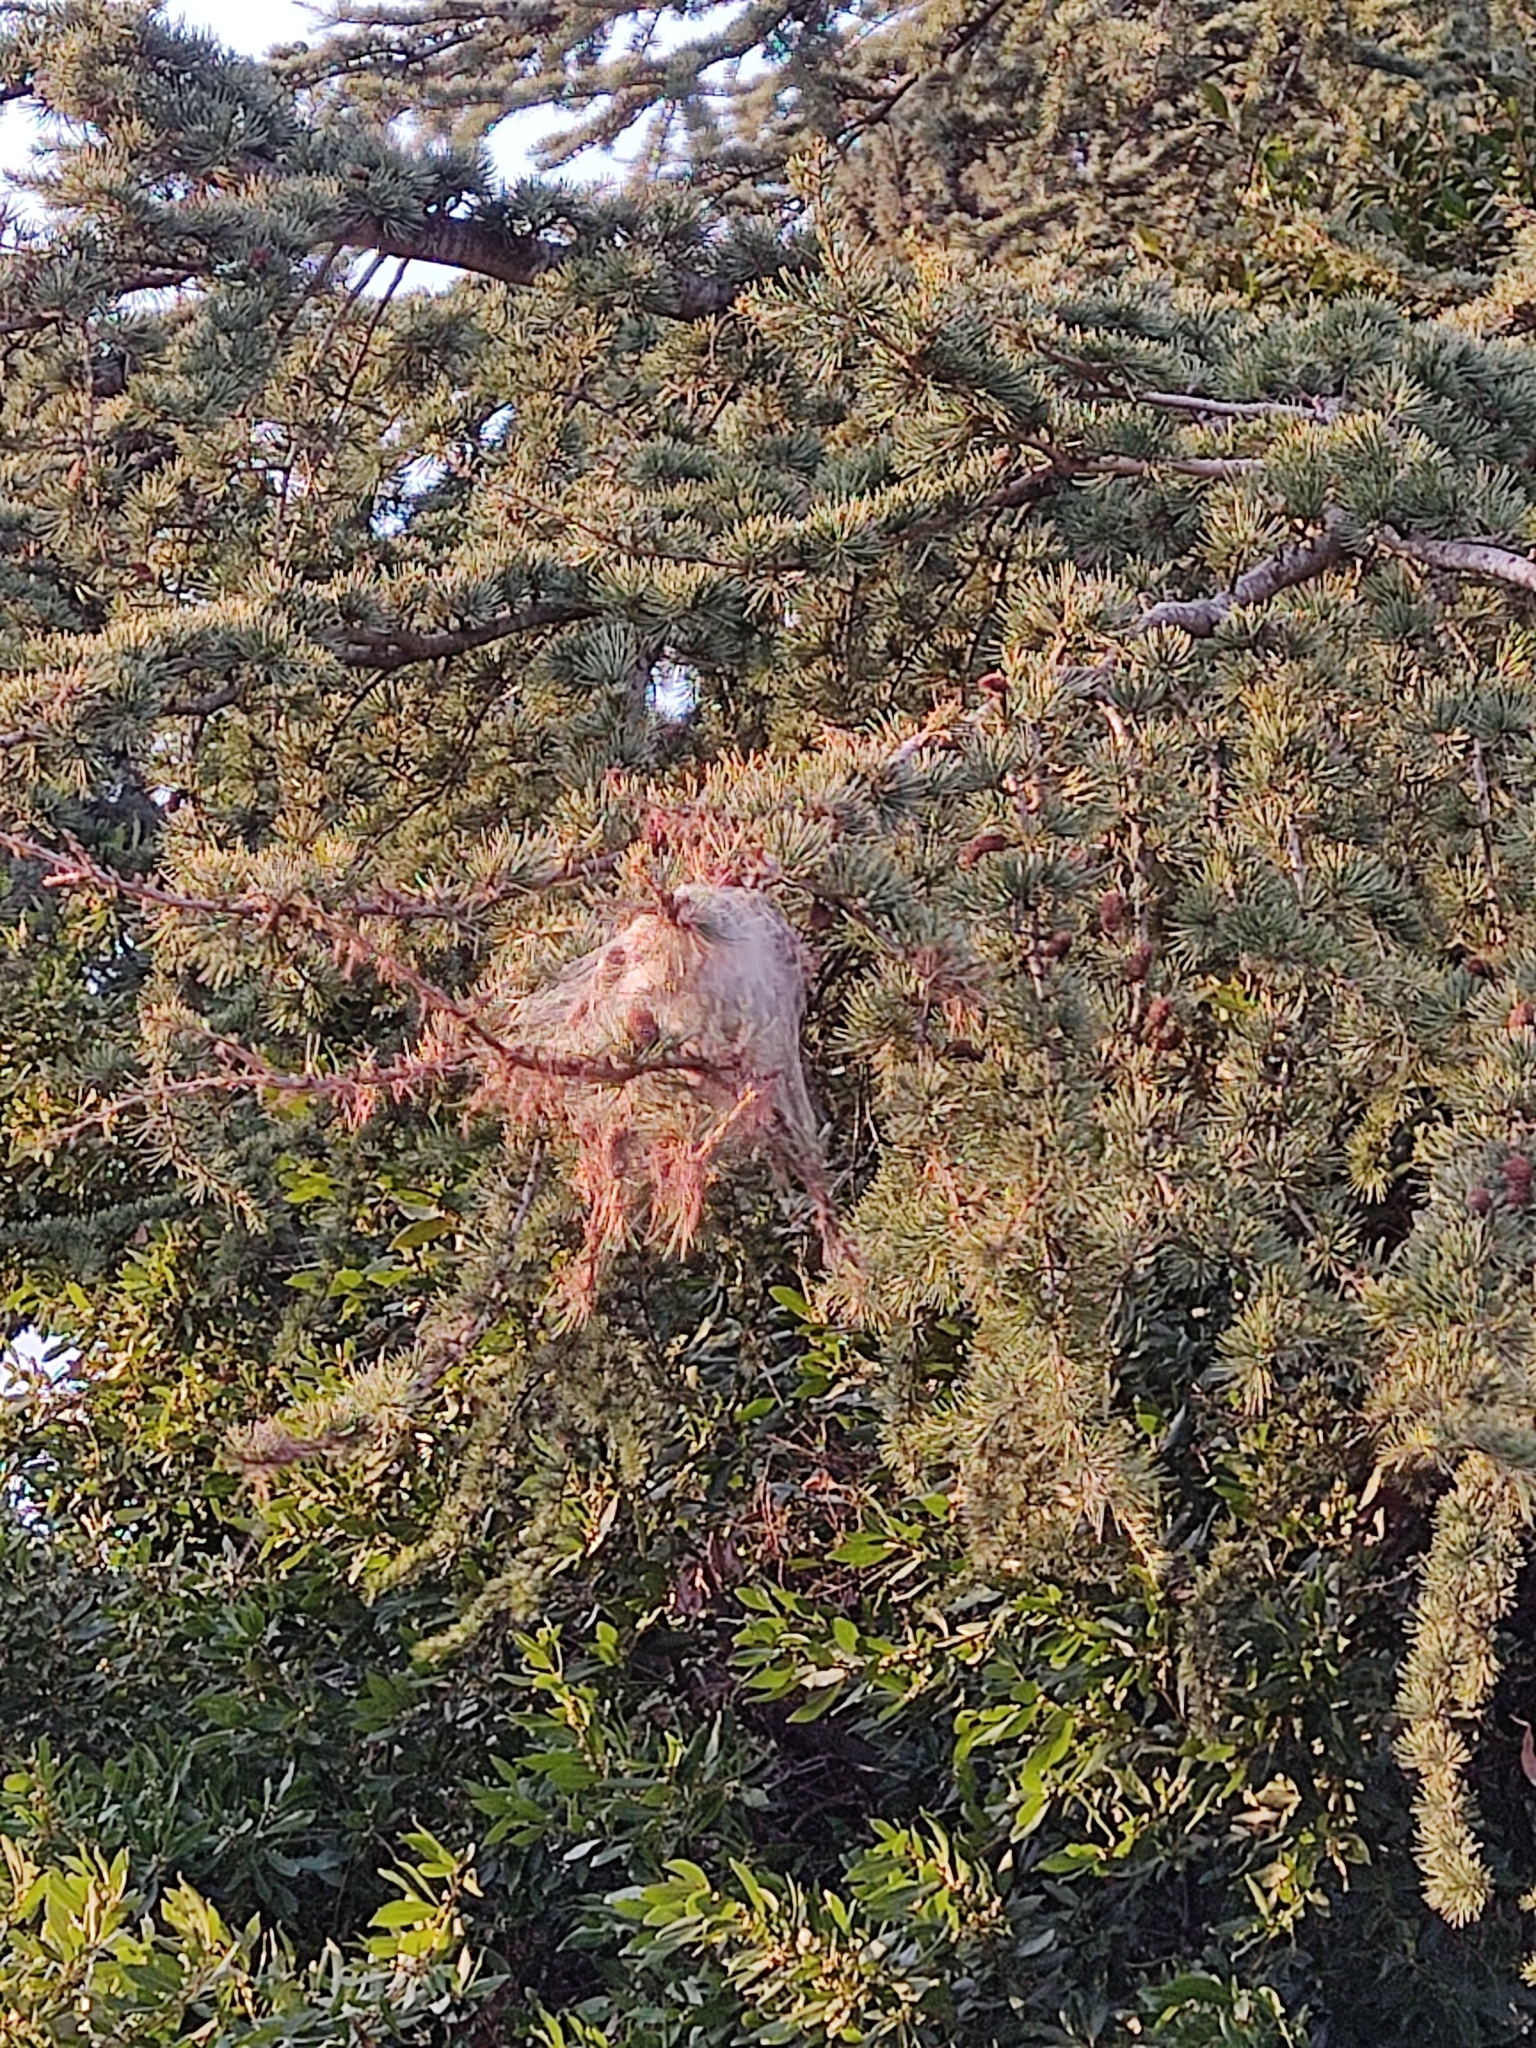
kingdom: Animalia
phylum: Arthropoda
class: Insecta
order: Lepidoptera
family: Notodontidae
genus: Thaumetopoea
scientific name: Thaumetopoea pityocampa
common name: Pine processionary
